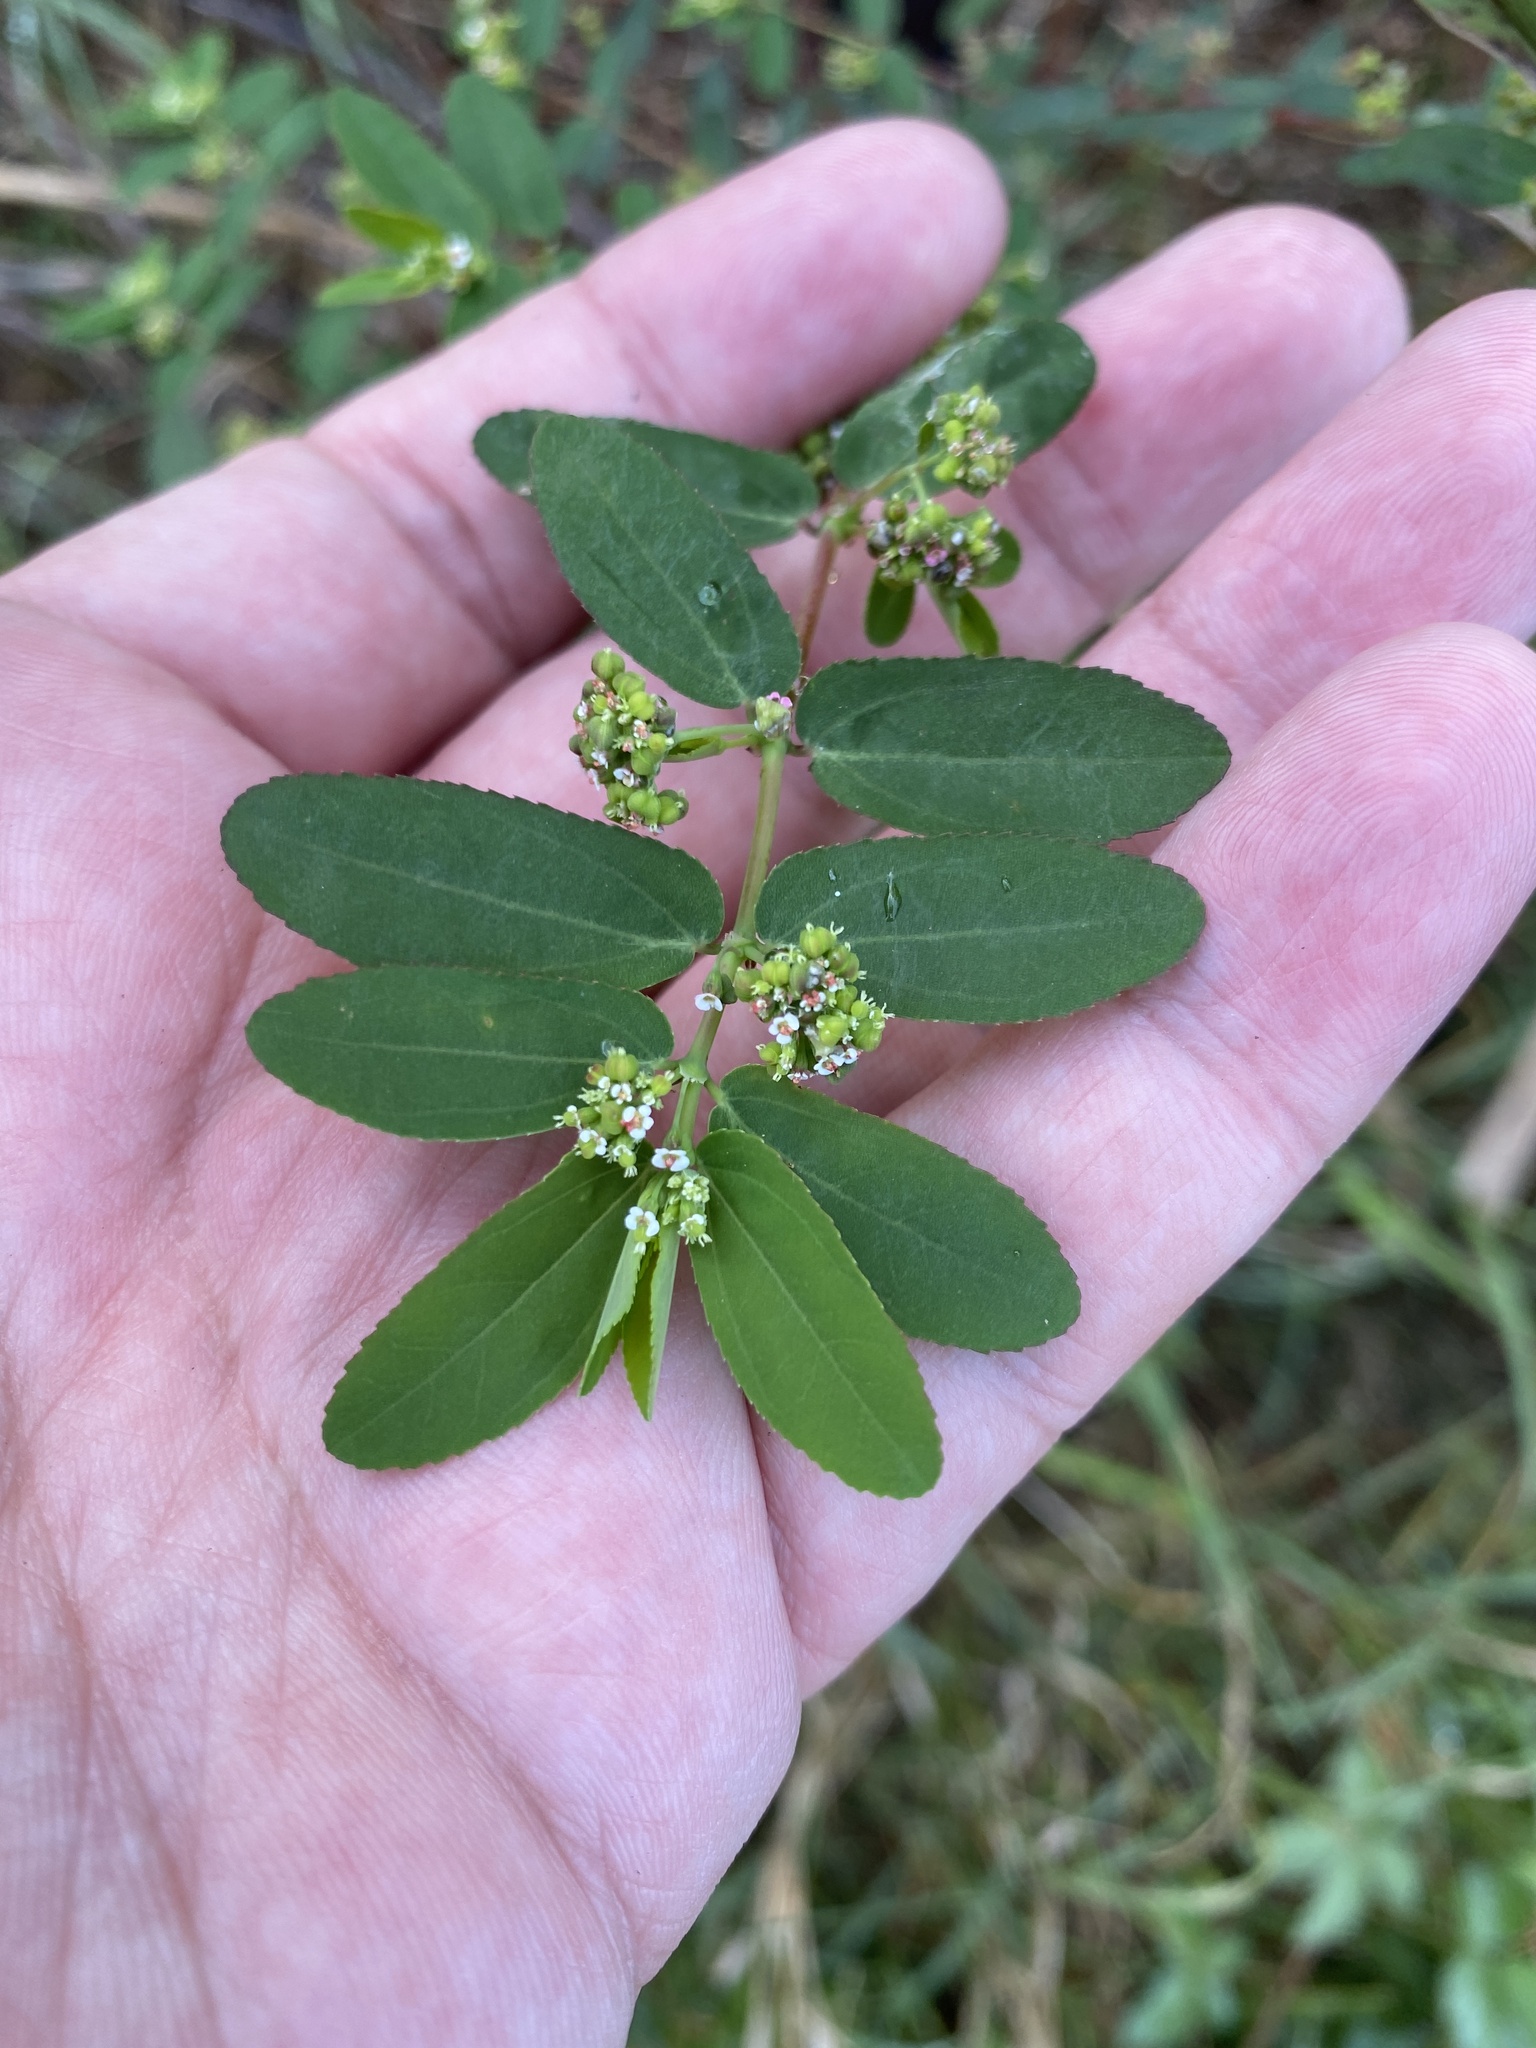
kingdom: Plantae
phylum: Tracheophyta
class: Magnoliopsida
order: Malpighiales
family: Euphorbiaceae
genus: Euphorbia
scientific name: Euphorbia hypericifolia
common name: Graceful sandmat
